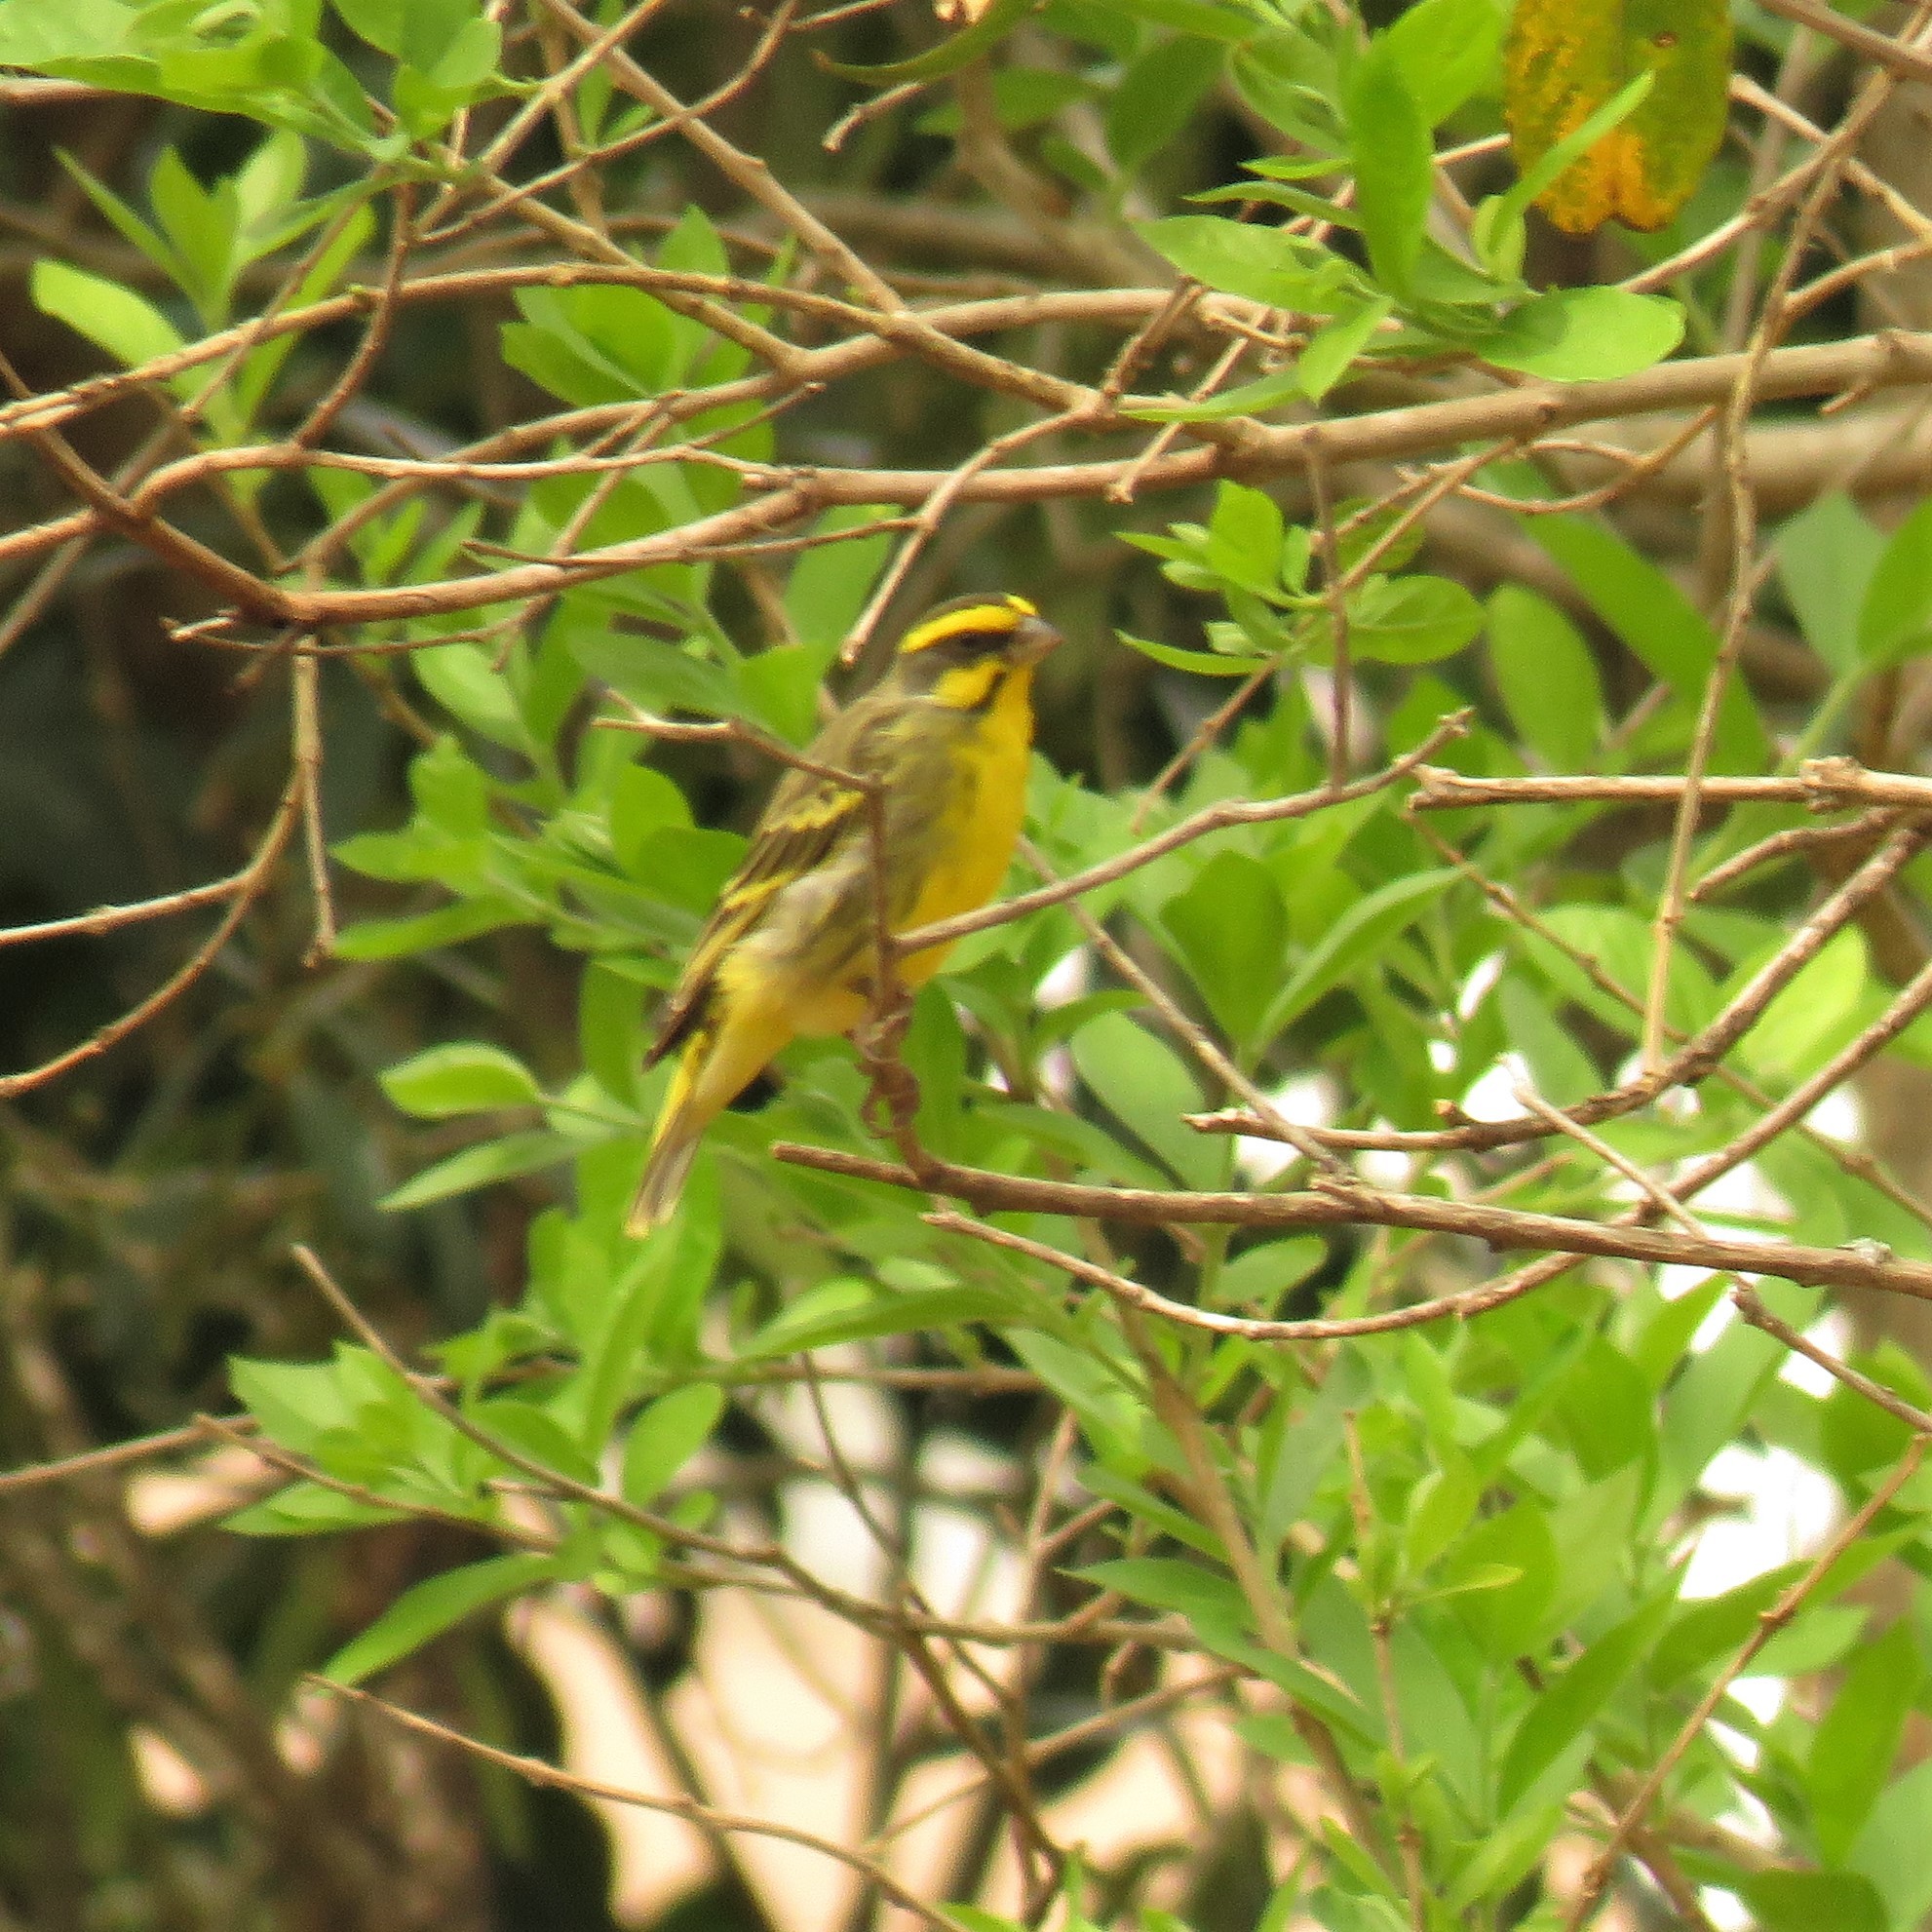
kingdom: Animalia
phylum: Chordata
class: Aves
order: Passeriformes
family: Fringillidae
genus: Crithagra
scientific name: Crithagra mozambica
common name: Yellow-fronted canary
